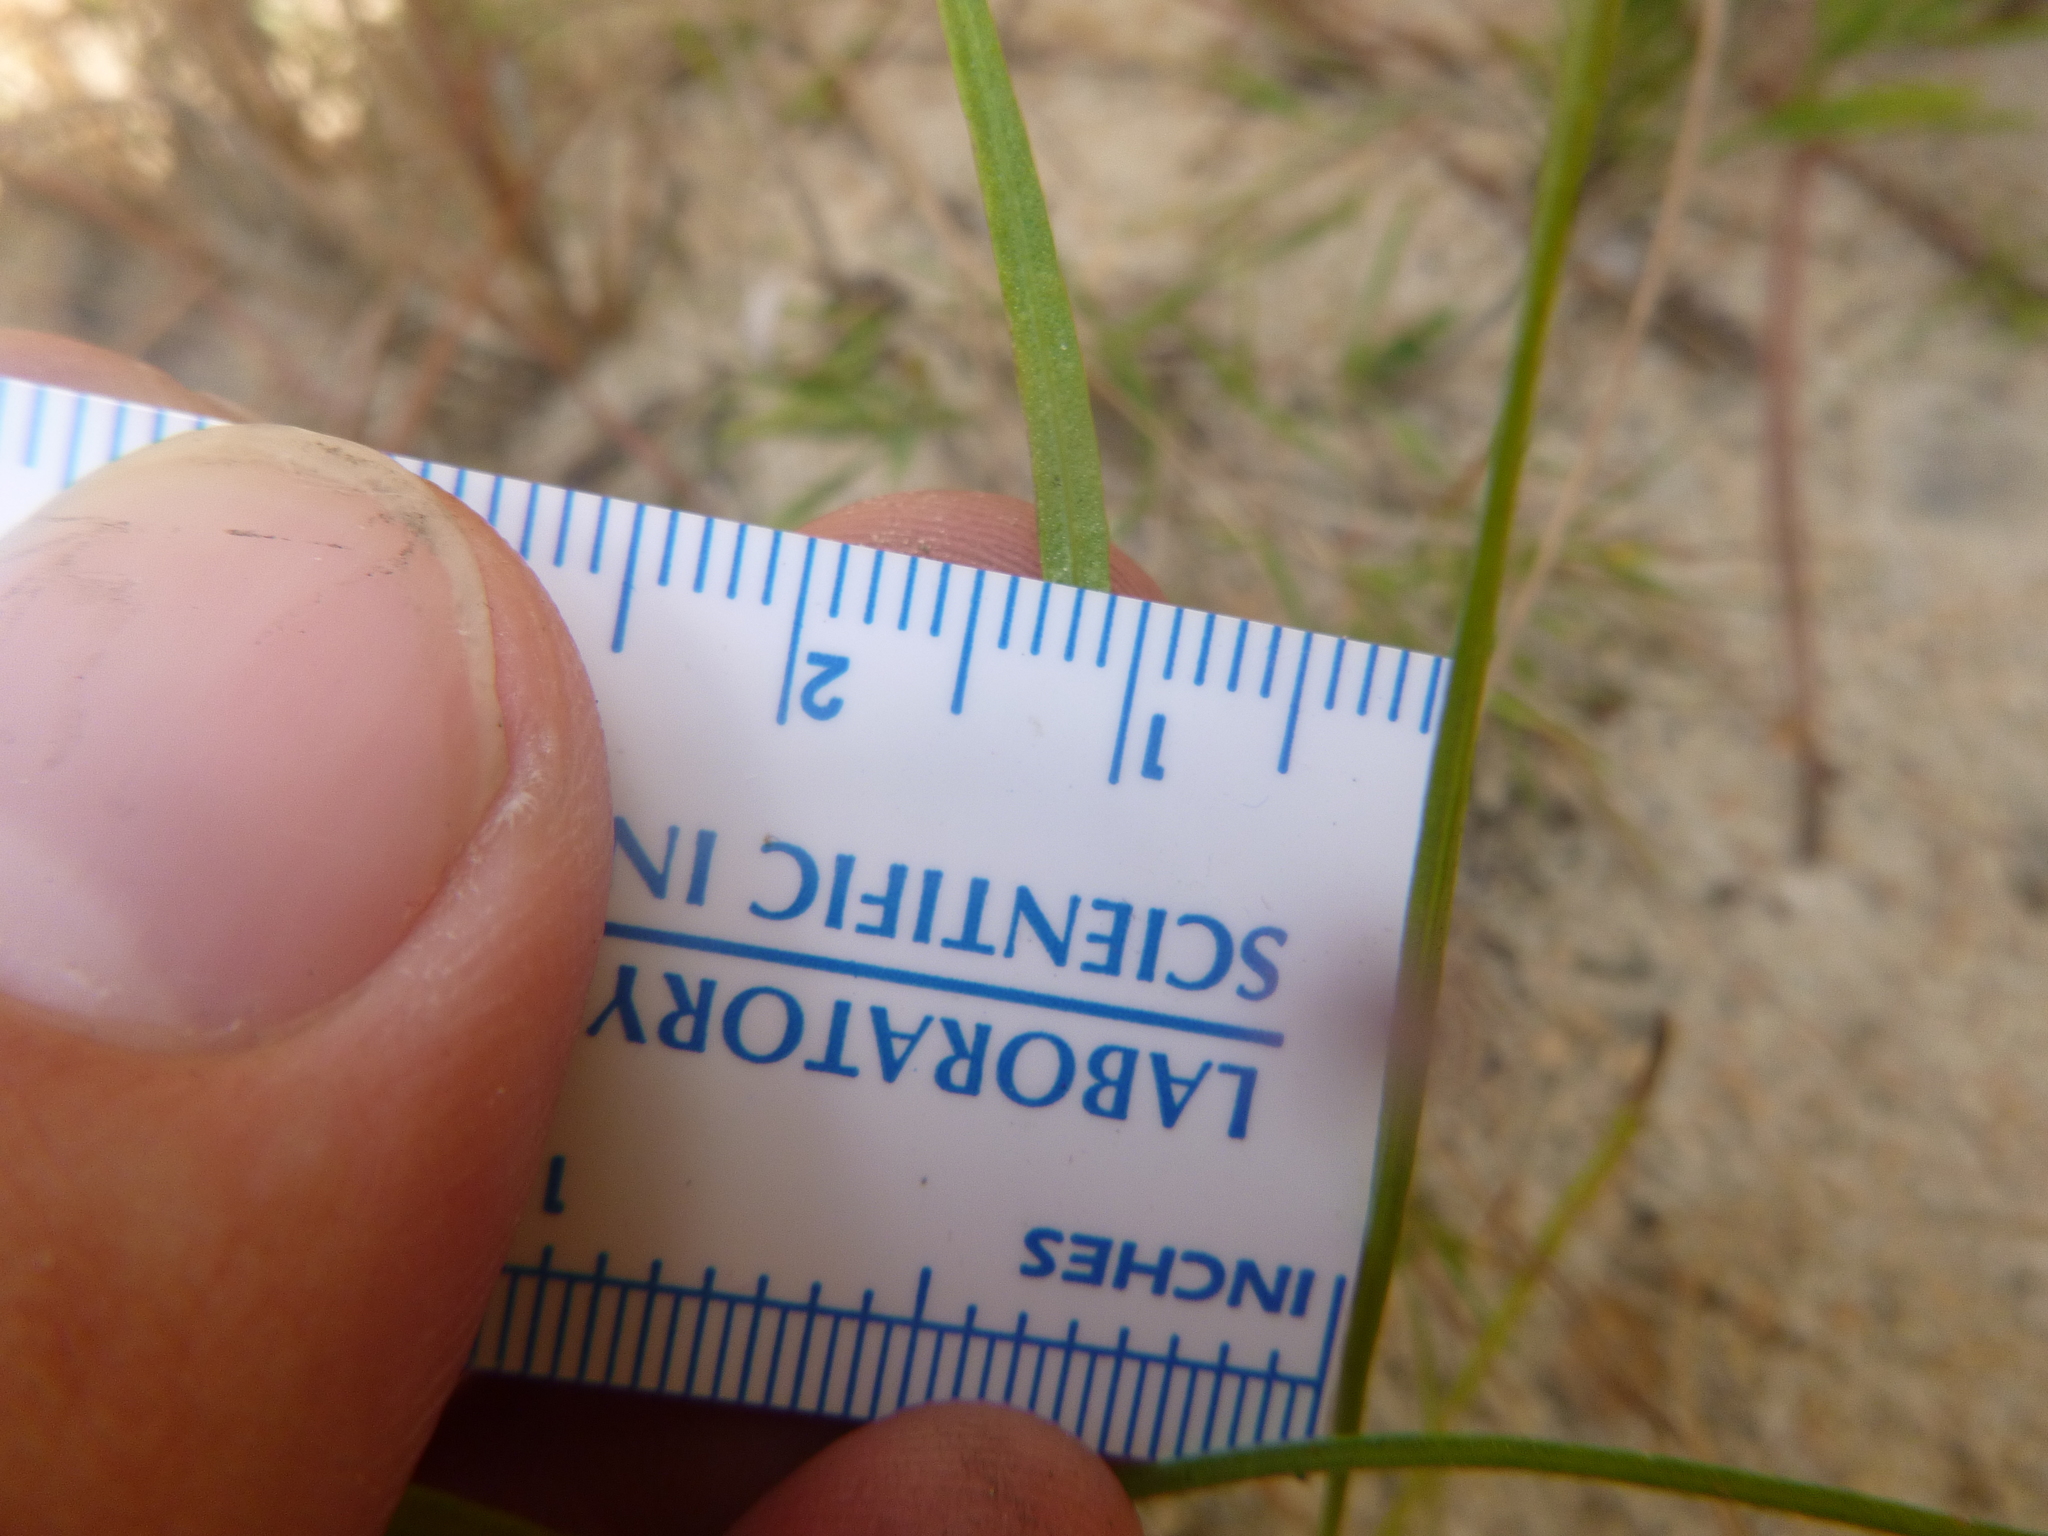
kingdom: Plantae
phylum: Tracheophyta
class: Magnoliopsida
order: Asterales
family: Asteraceae
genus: Liatris
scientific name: Liatris tenuifolia
